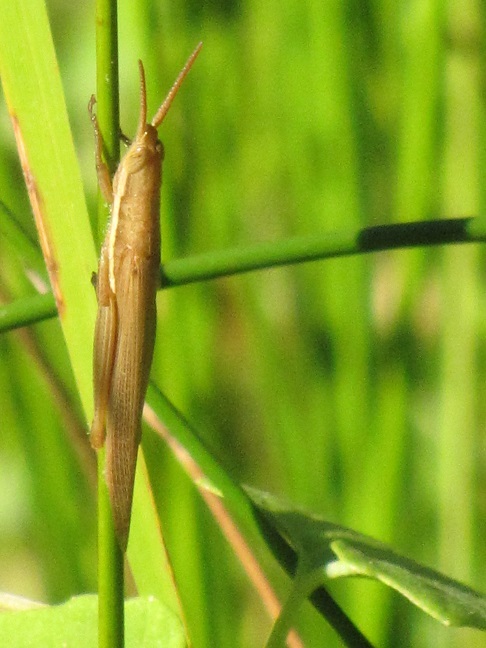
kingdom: Animalia
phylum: Arthropoda
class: Insecta
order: Orthoptera
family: Acrididae
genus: Leptysma
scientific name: Leptysma marginicollis
